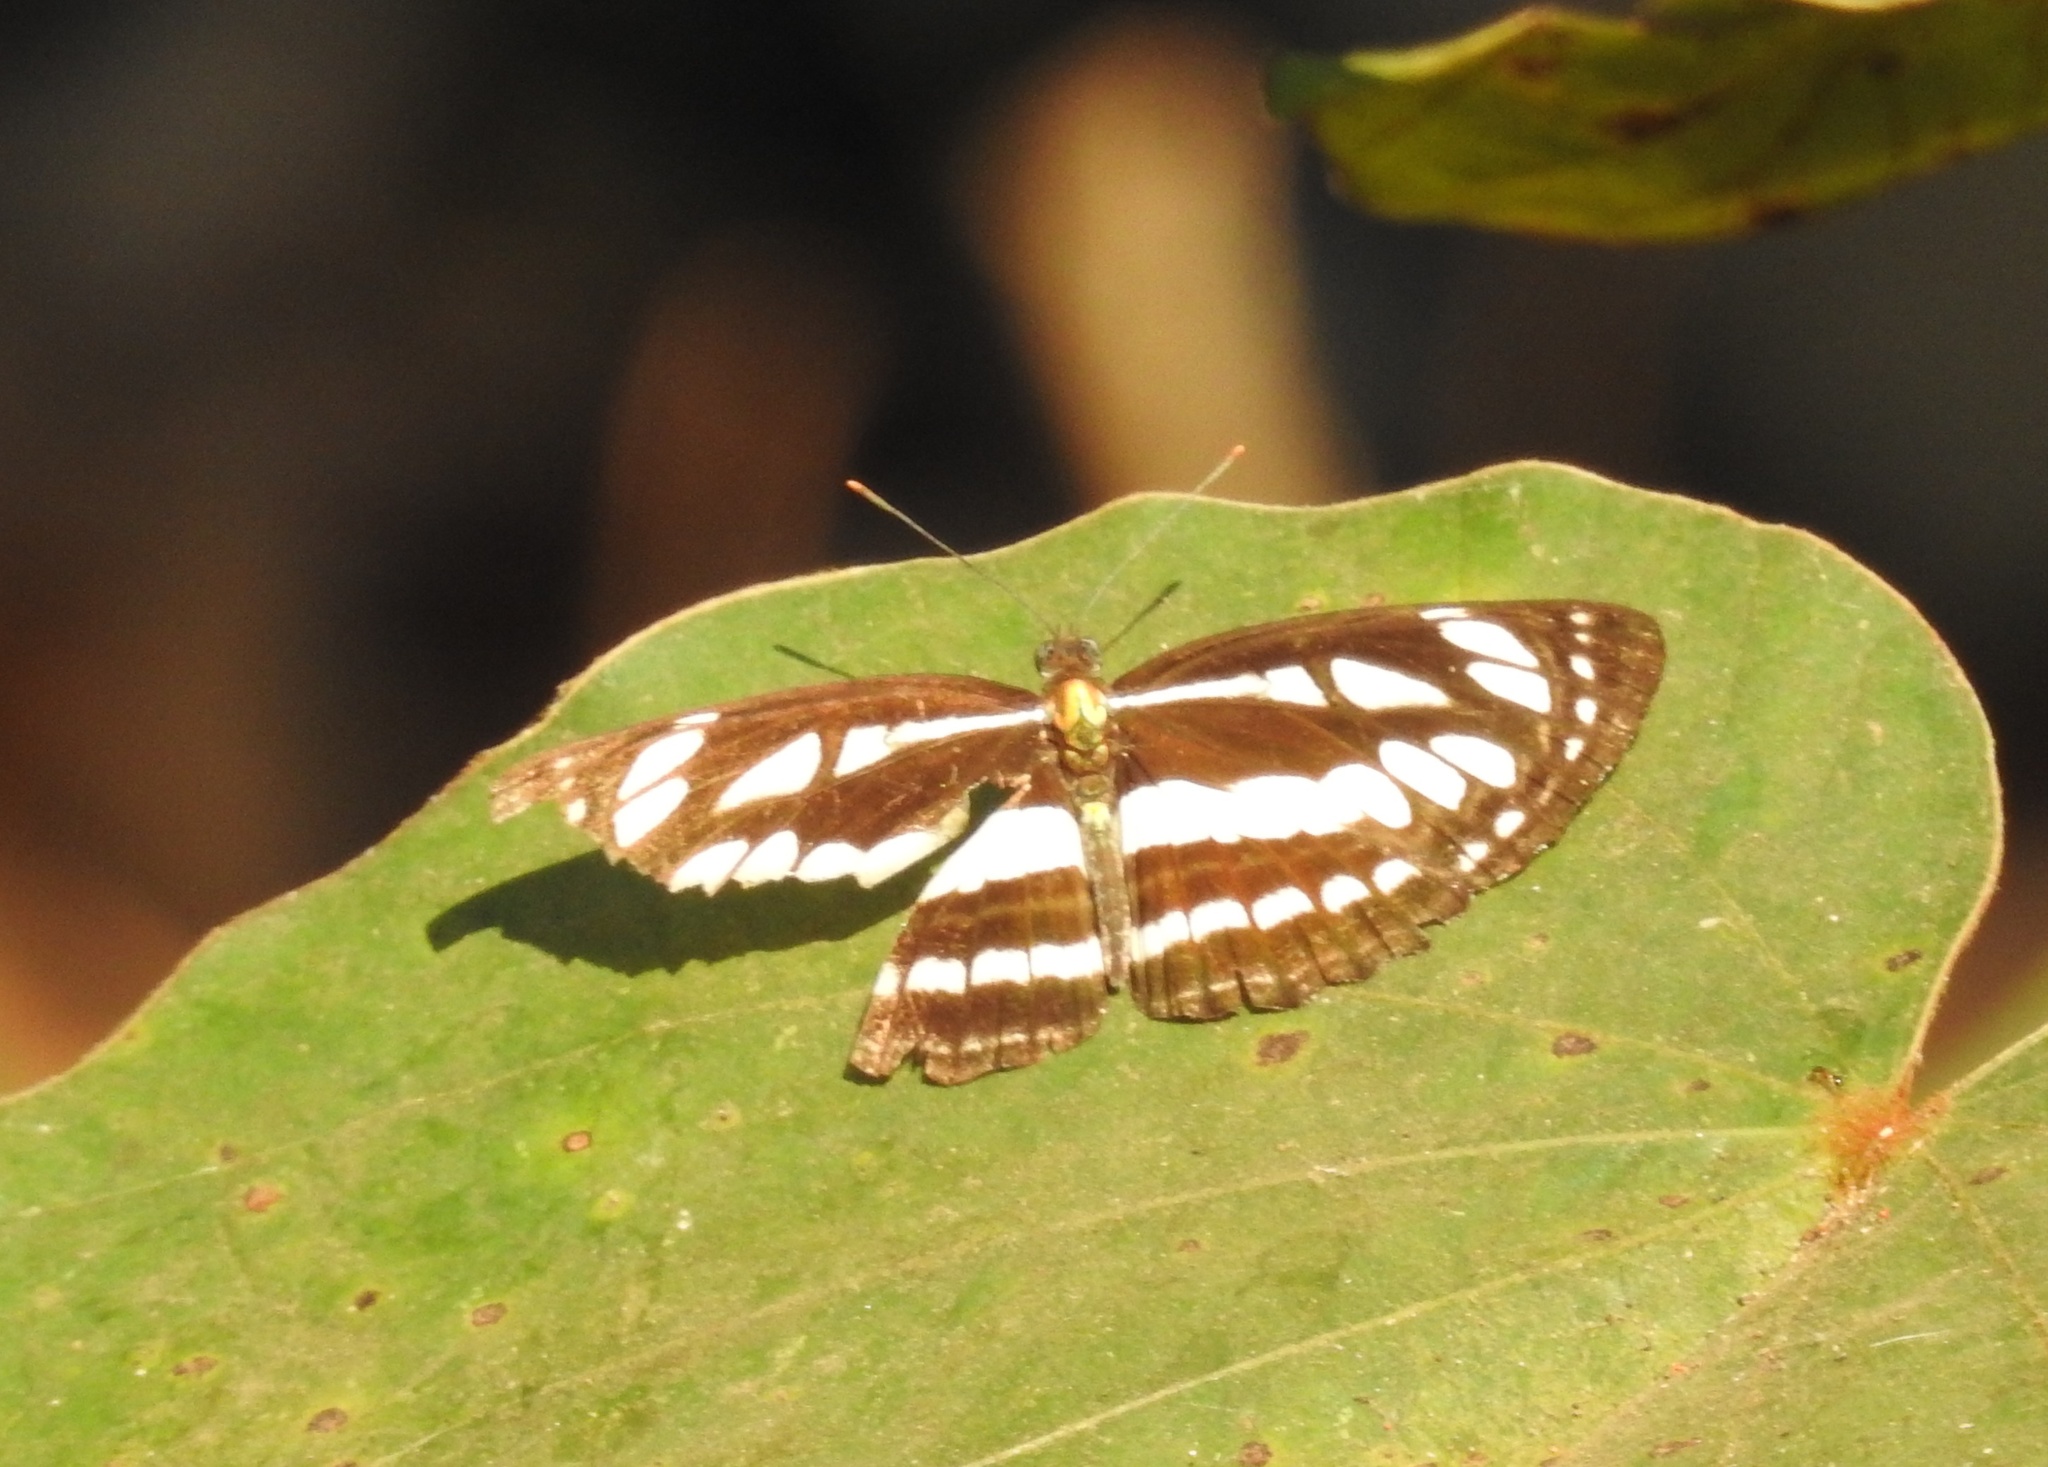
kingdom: Animalia
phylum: Arthropoda
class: Insecta
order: Lepidoptera
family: Nymphalidae
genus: Neptis
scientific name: Neptis hylas
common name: Common sailer
